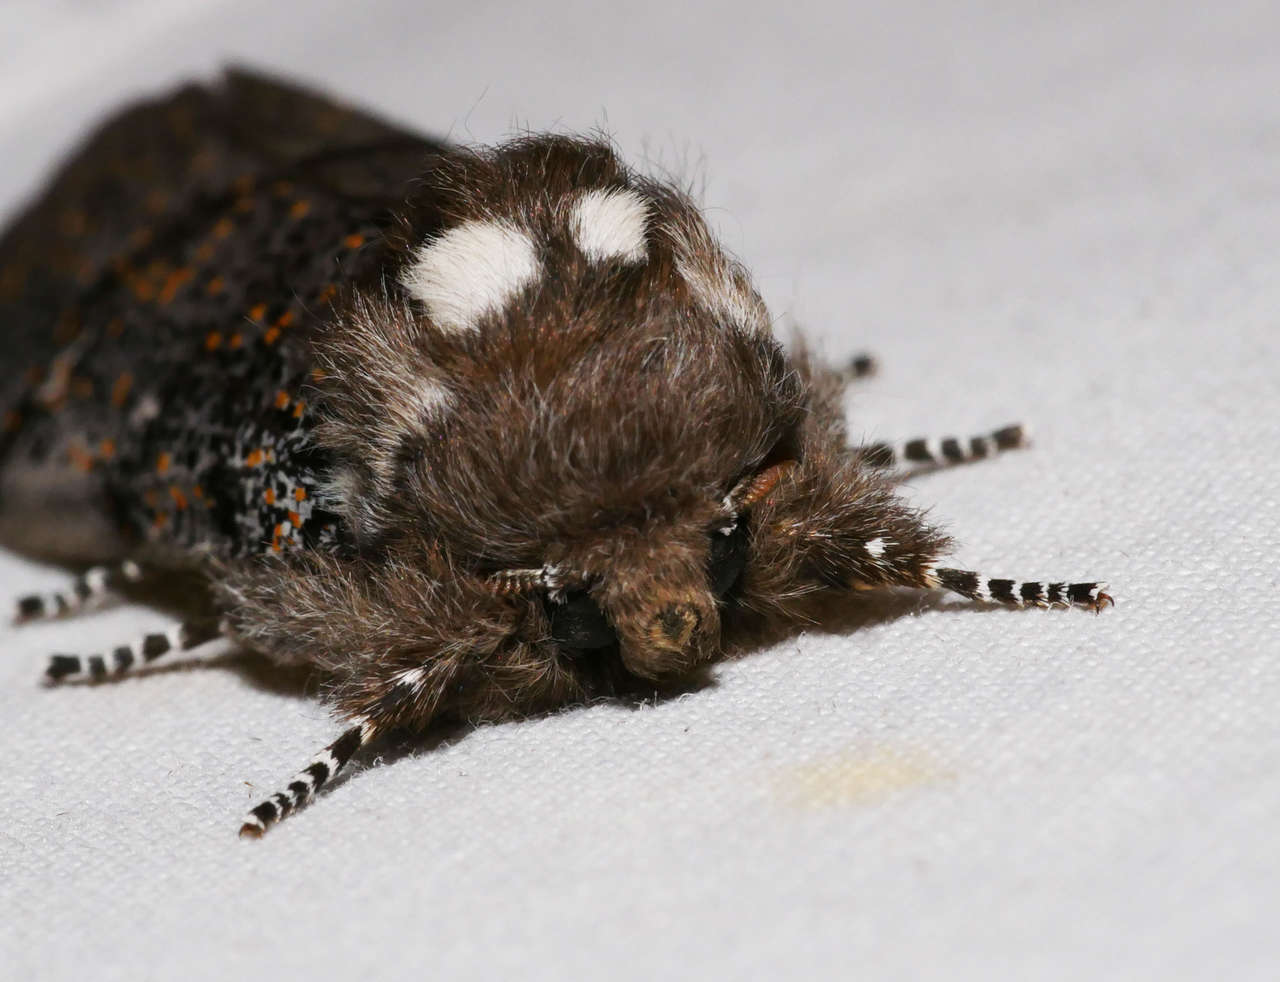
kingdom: Animalia
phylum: Arthropoda
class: Insecta
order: Lepidoptera
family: Oenosandridae
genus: Oenosandra
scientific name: Oenosandra boisduvalii
